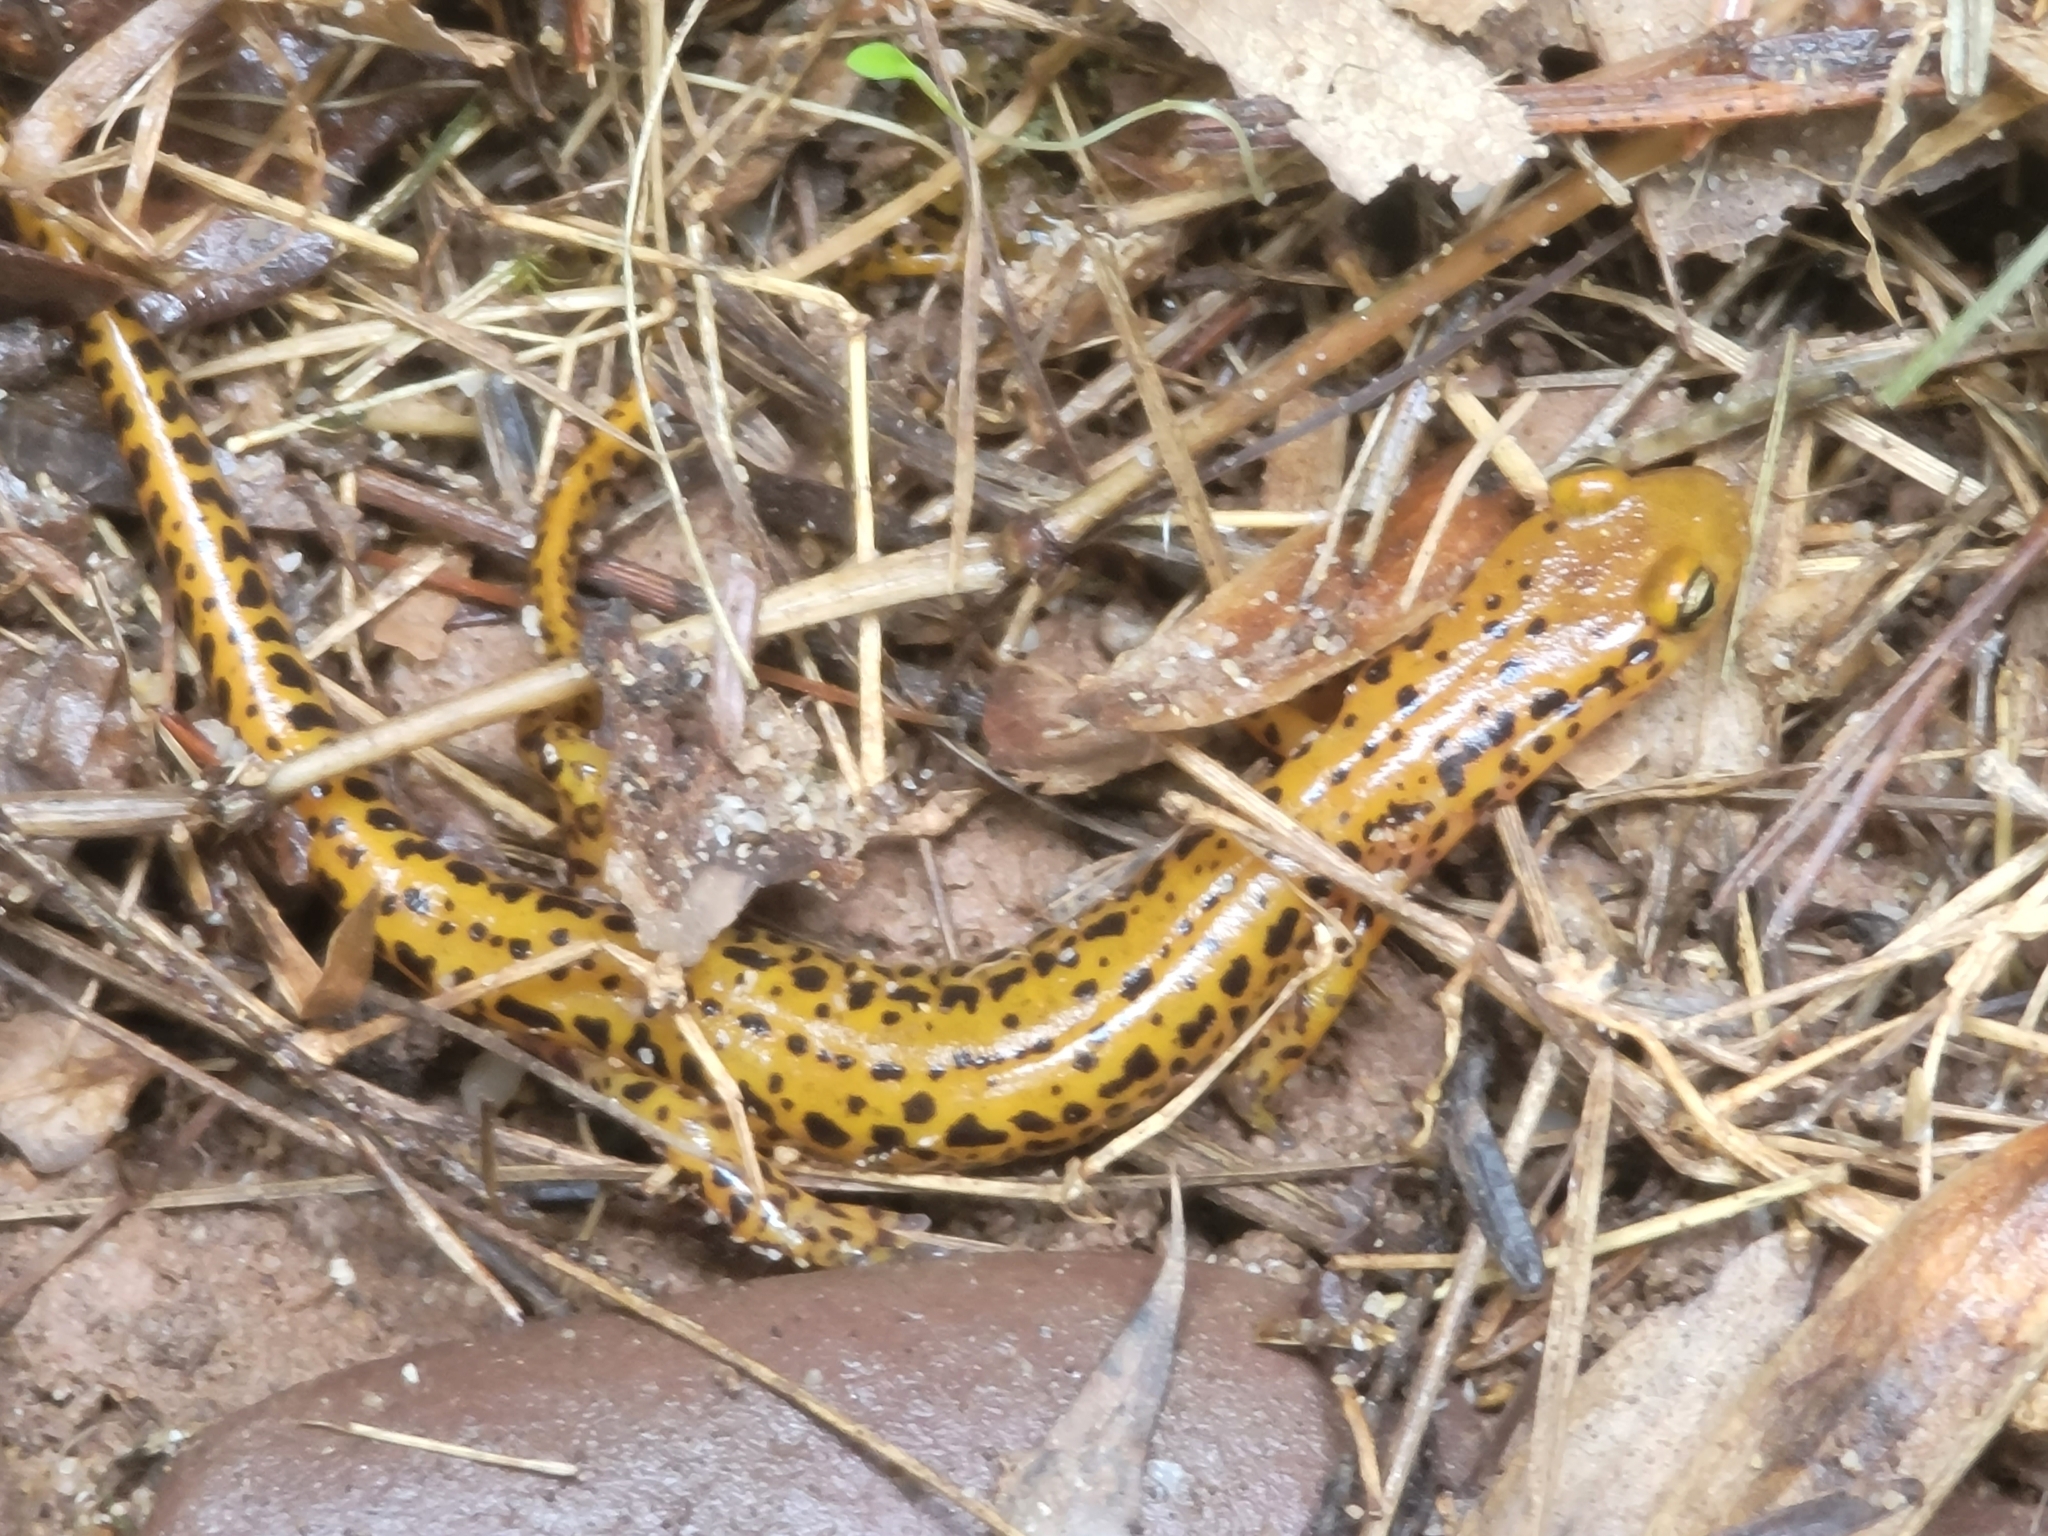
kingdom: Animalia
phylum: Chordata
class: Amphibia
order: Caudata
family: Plethodontidae
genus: Eurycea
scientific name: Eurycea longicauda
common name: Long-tailed salamander
